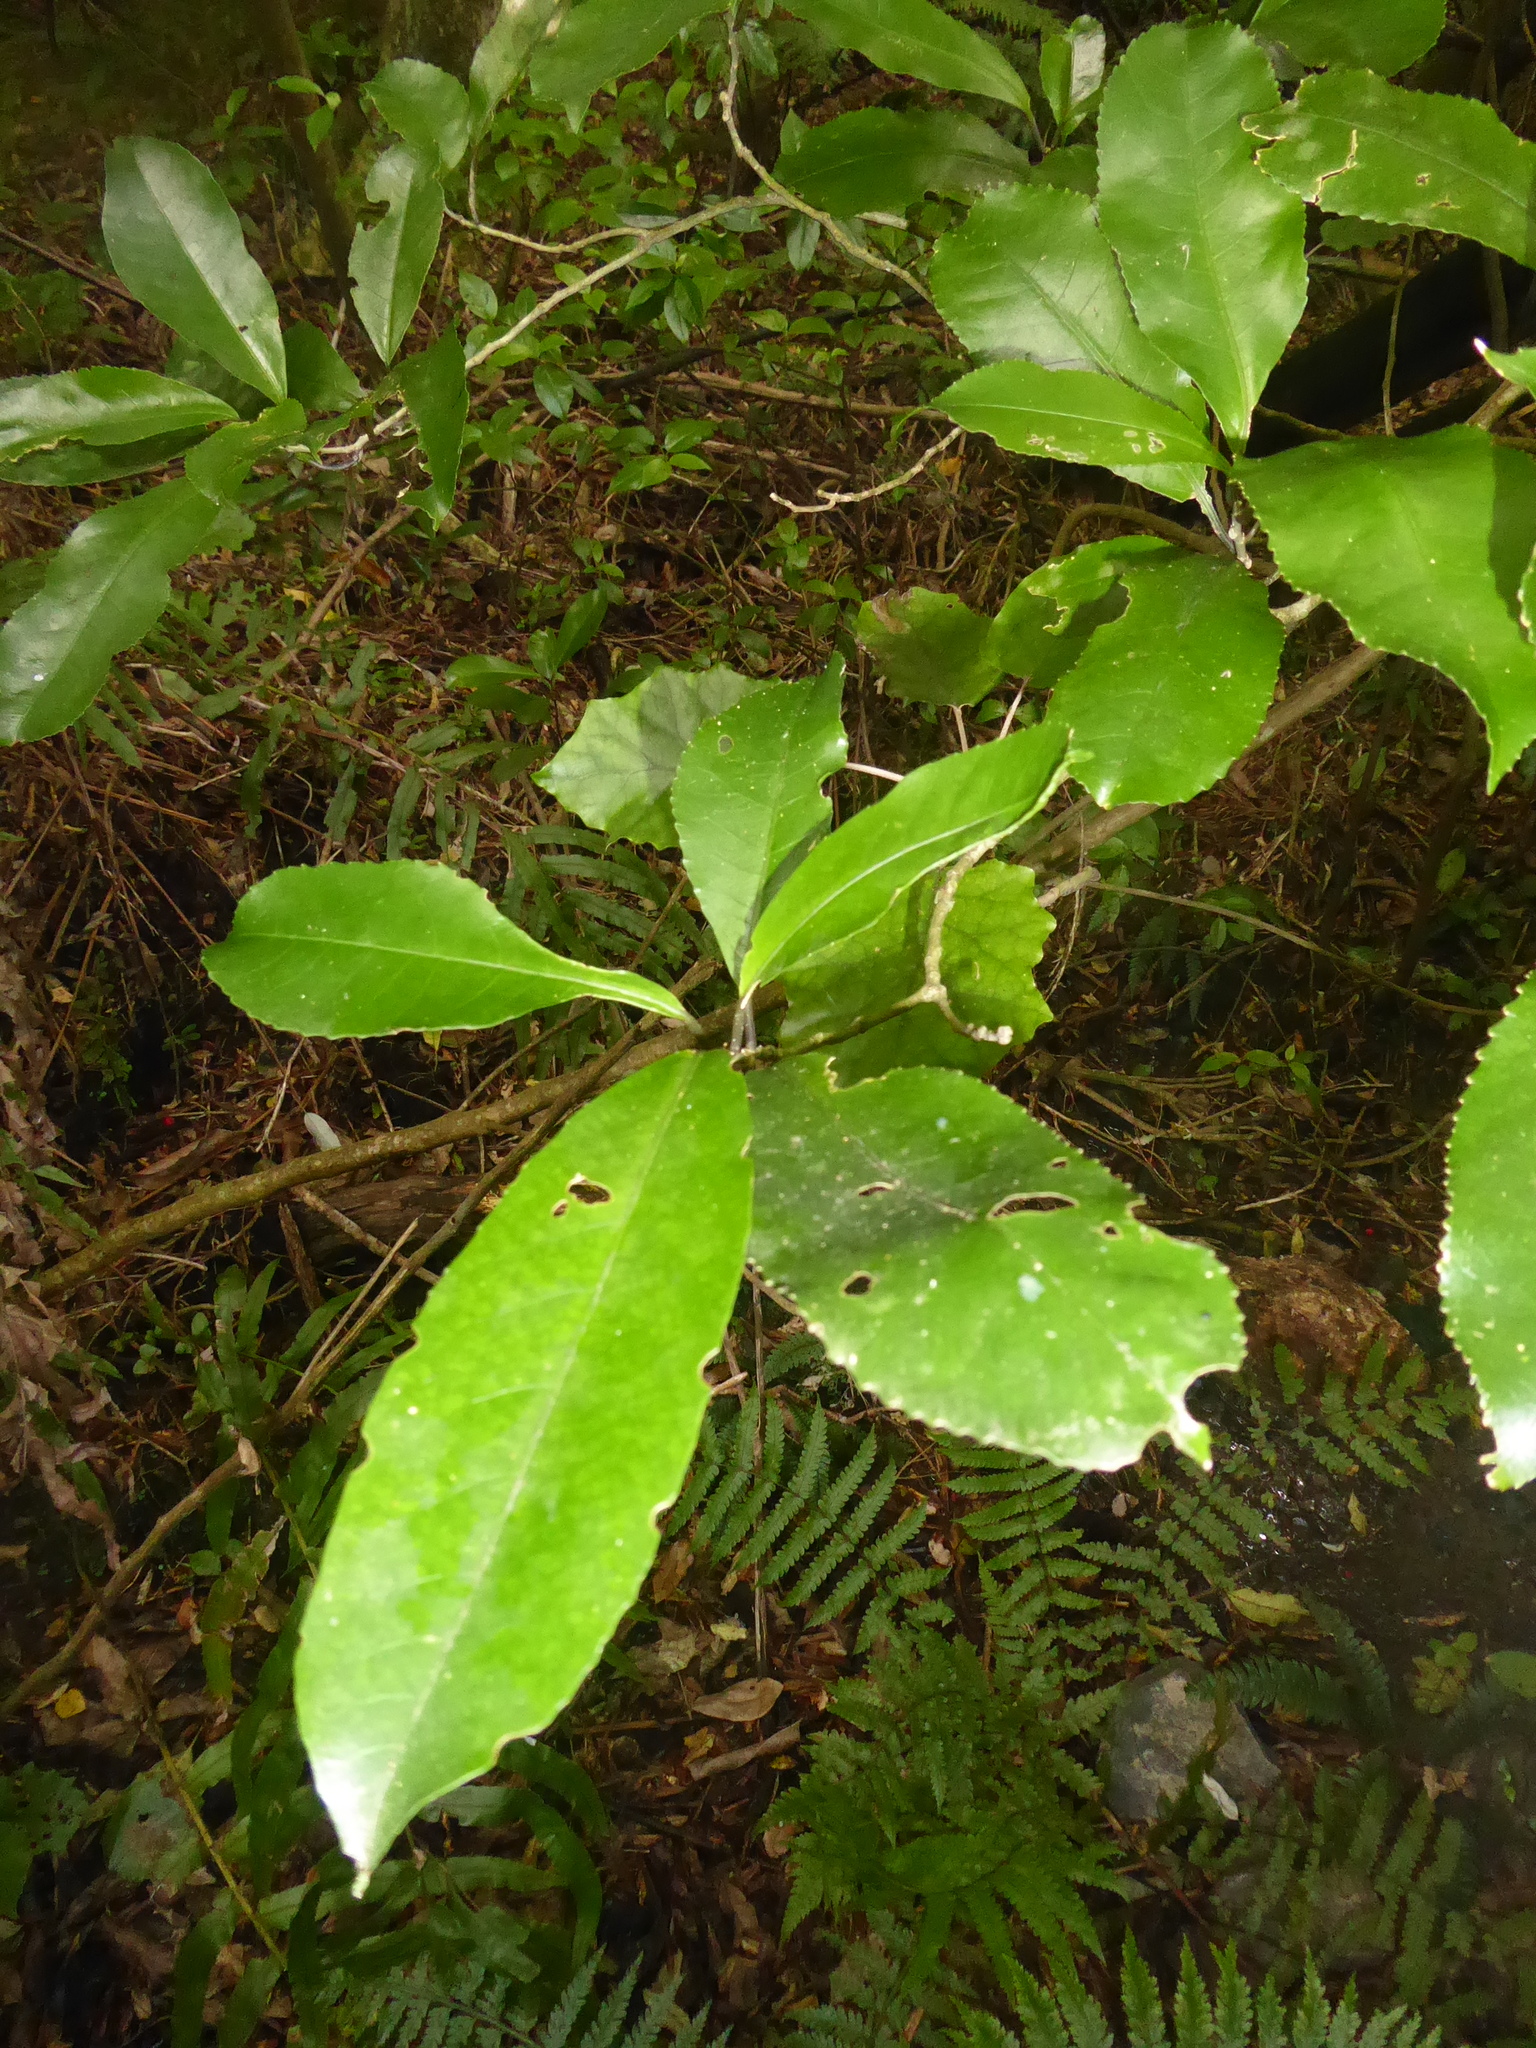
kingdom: Plantae
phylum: Tracheophyta
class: Magnoliopsida
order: Malpighiales
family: Violaceae
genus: Melicytus
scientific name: Melicytus ramiflorus
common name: Mahoe
